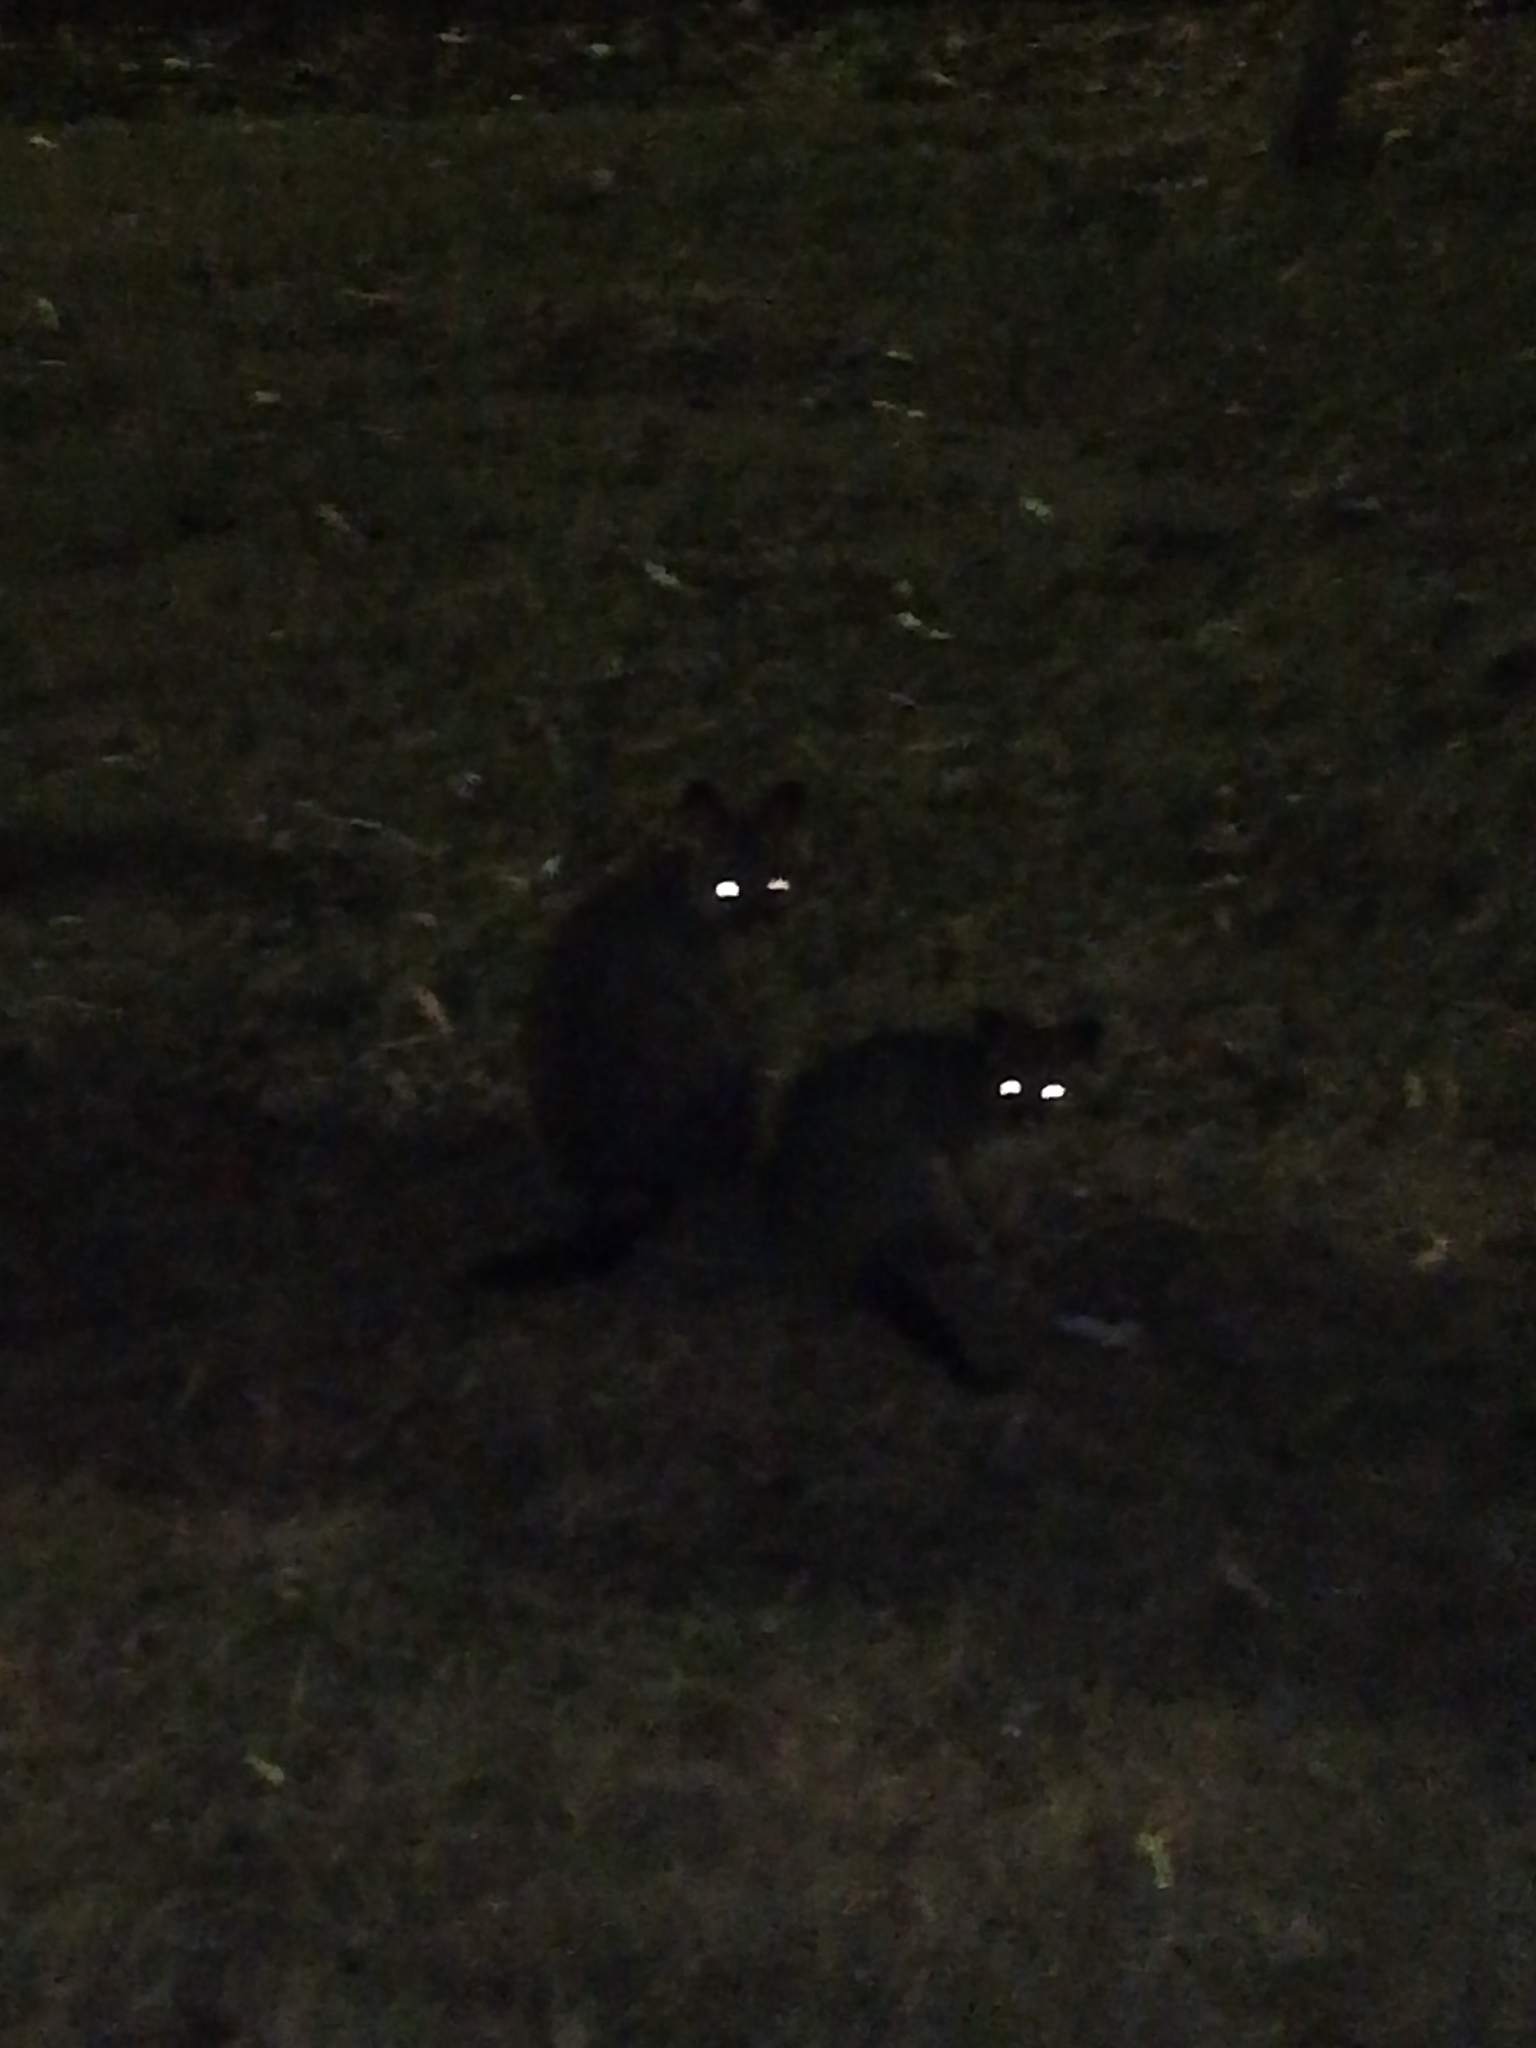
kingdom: Animalia
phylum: Chordata
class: Mammalia
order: Diprotodontia
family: Phalangeridae
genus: Trichosurus
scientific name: Trichosurus vulpecula
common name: Common brushtail
